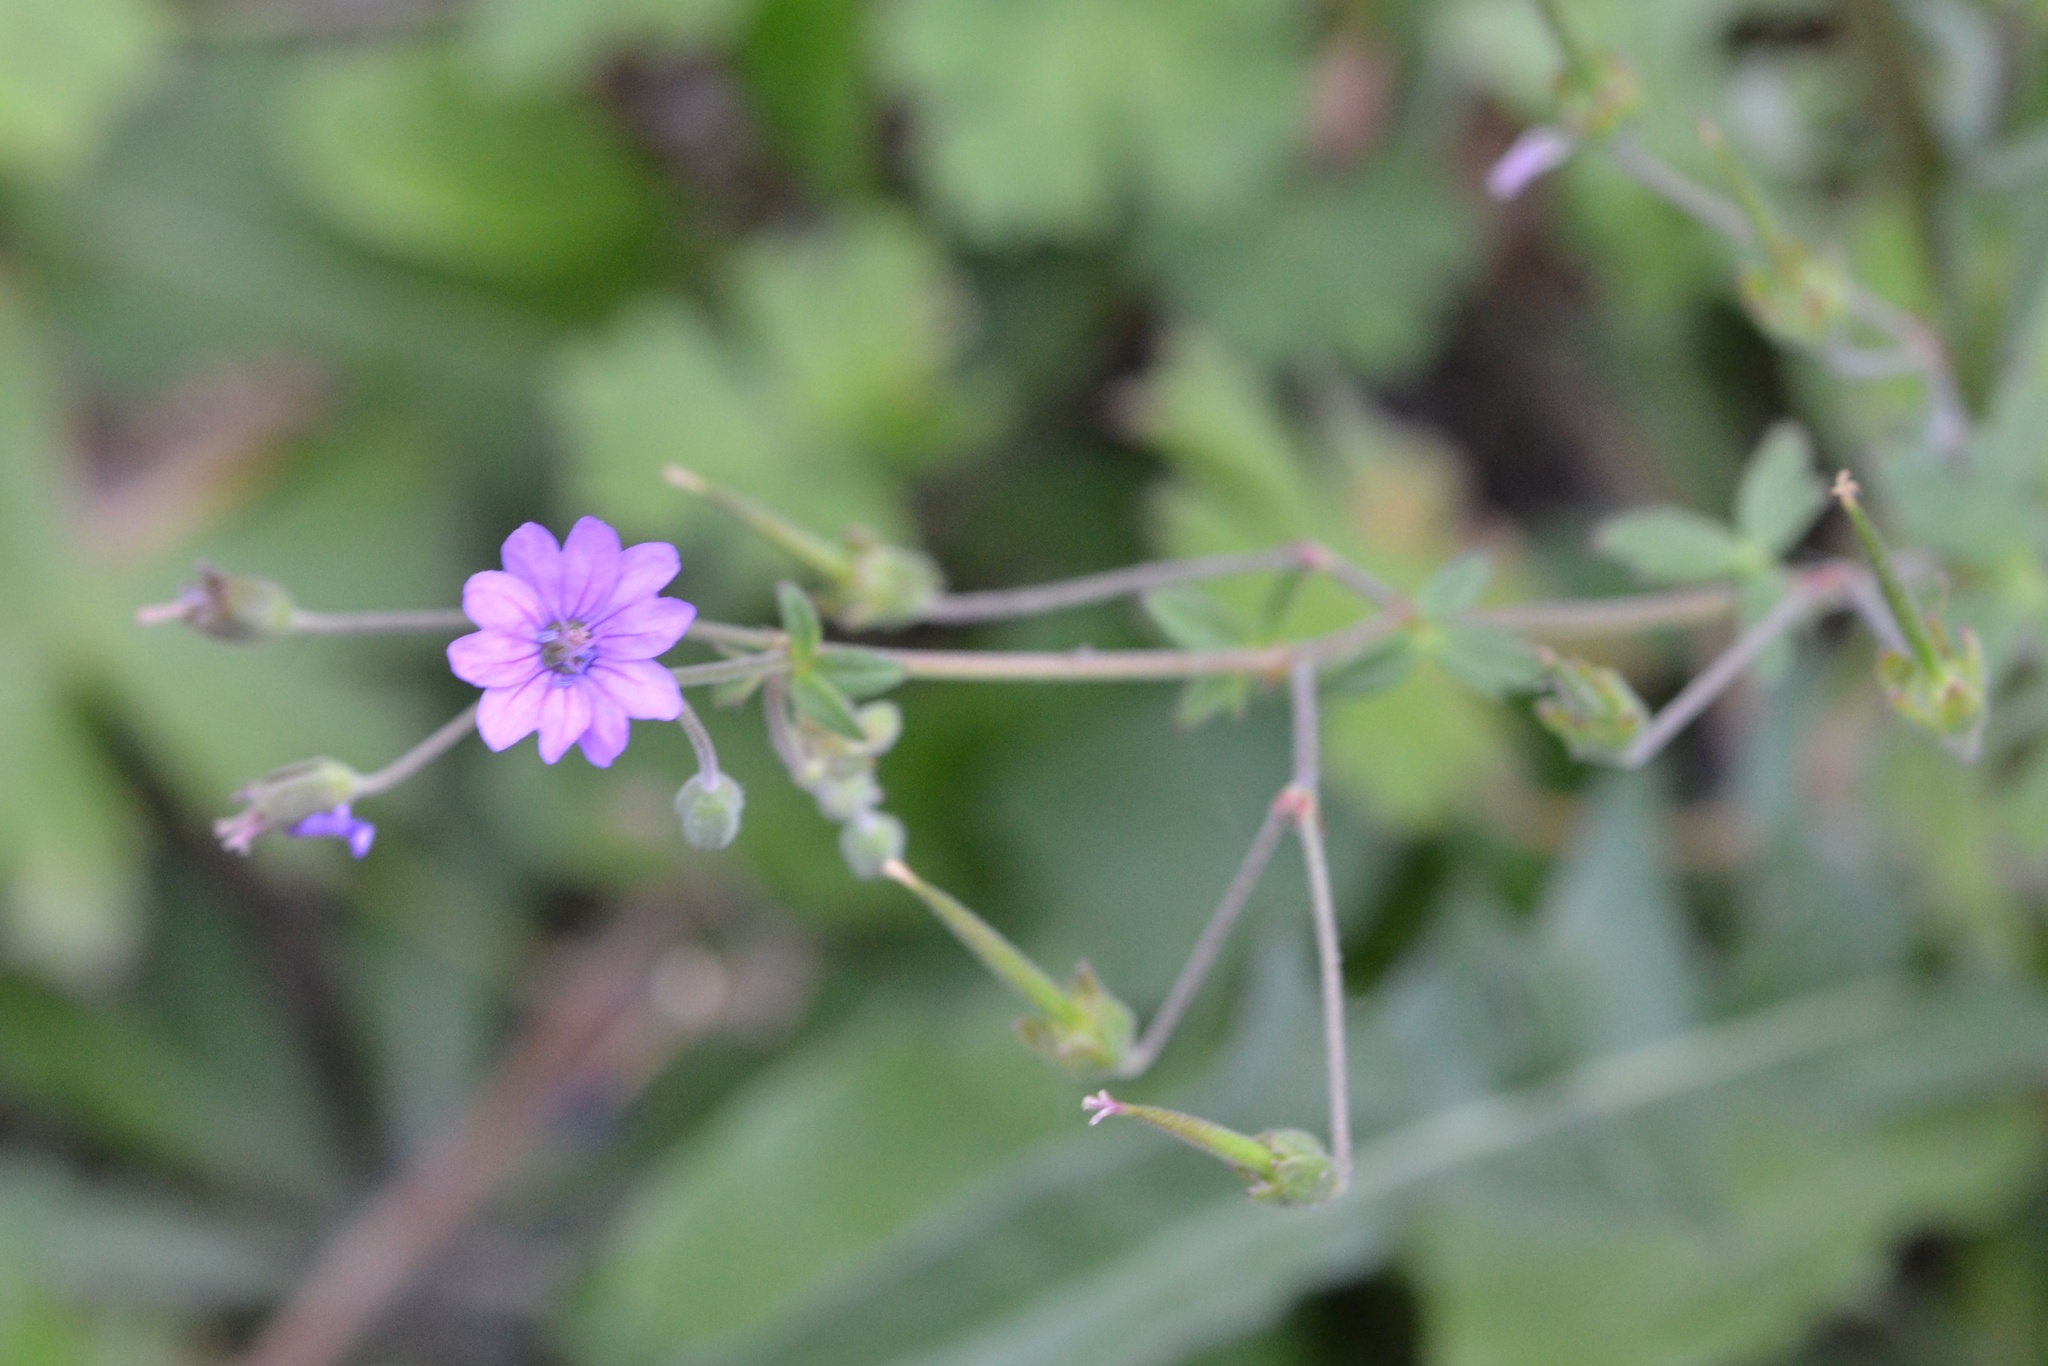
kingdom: Plantae
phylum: Tracheophyta
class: Magnoliopsida
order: Geraniales
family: Geraniaceae
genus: Geranium
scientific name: Geranium pyrenaicum
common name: Hedgerow crane's-bill
